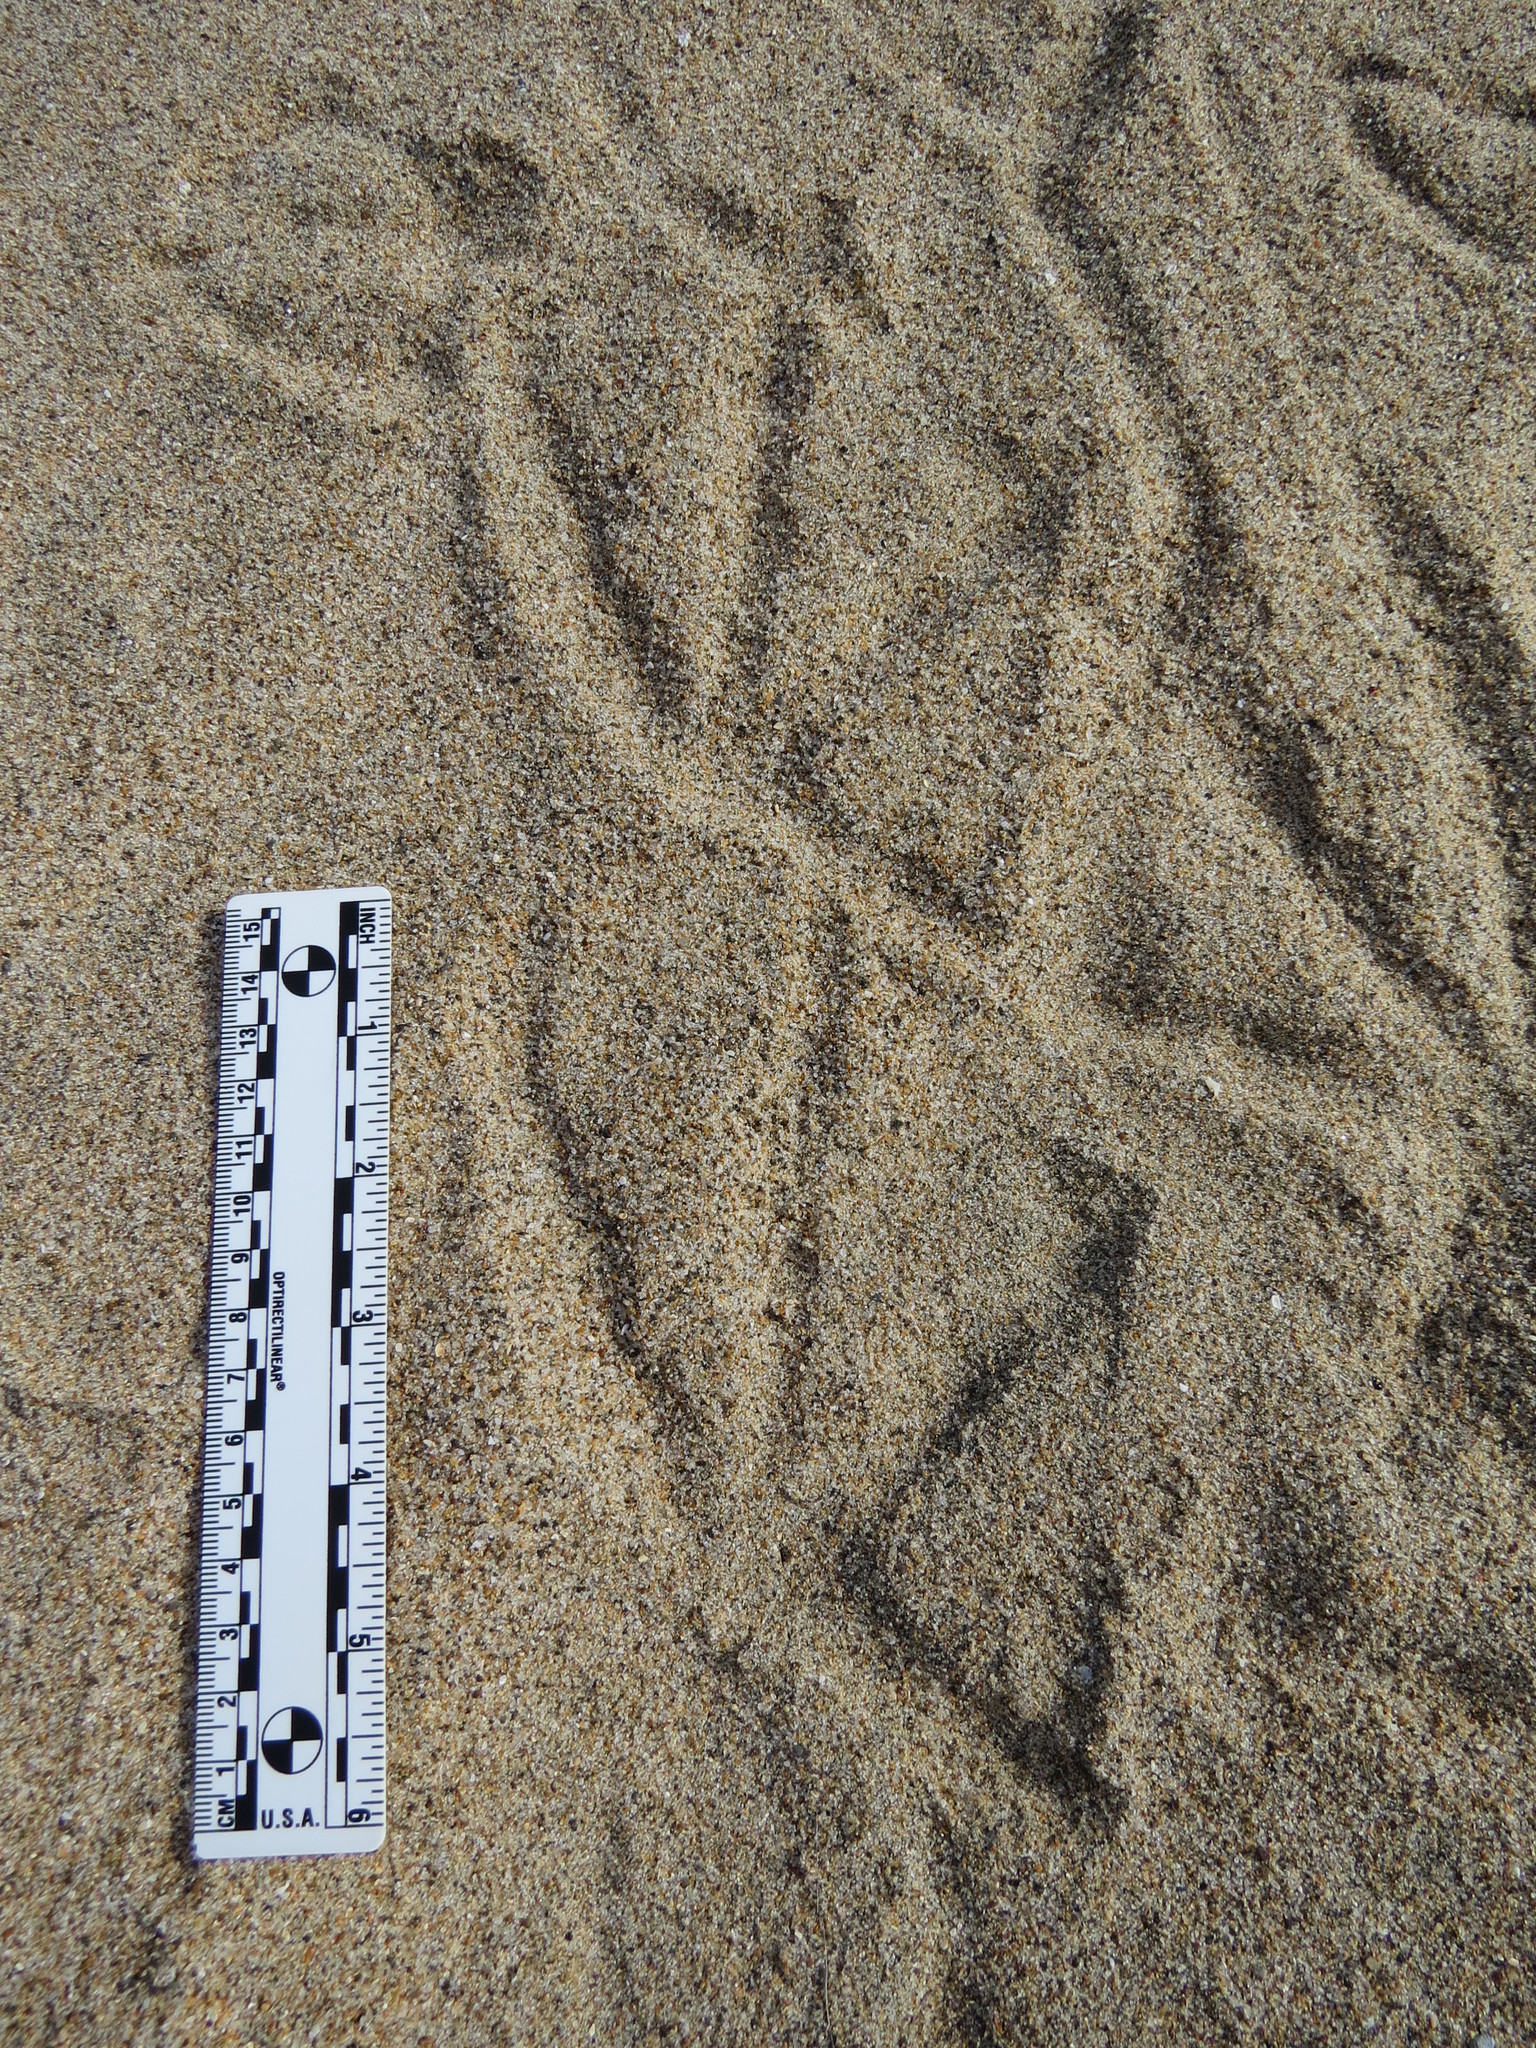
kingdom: Animalia
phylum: Chordata
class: Aves
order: Pelecaniformes
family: Pelecanidae
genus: Pelecanus
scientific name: Pelecanus occidentalis
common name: Brown pelican
